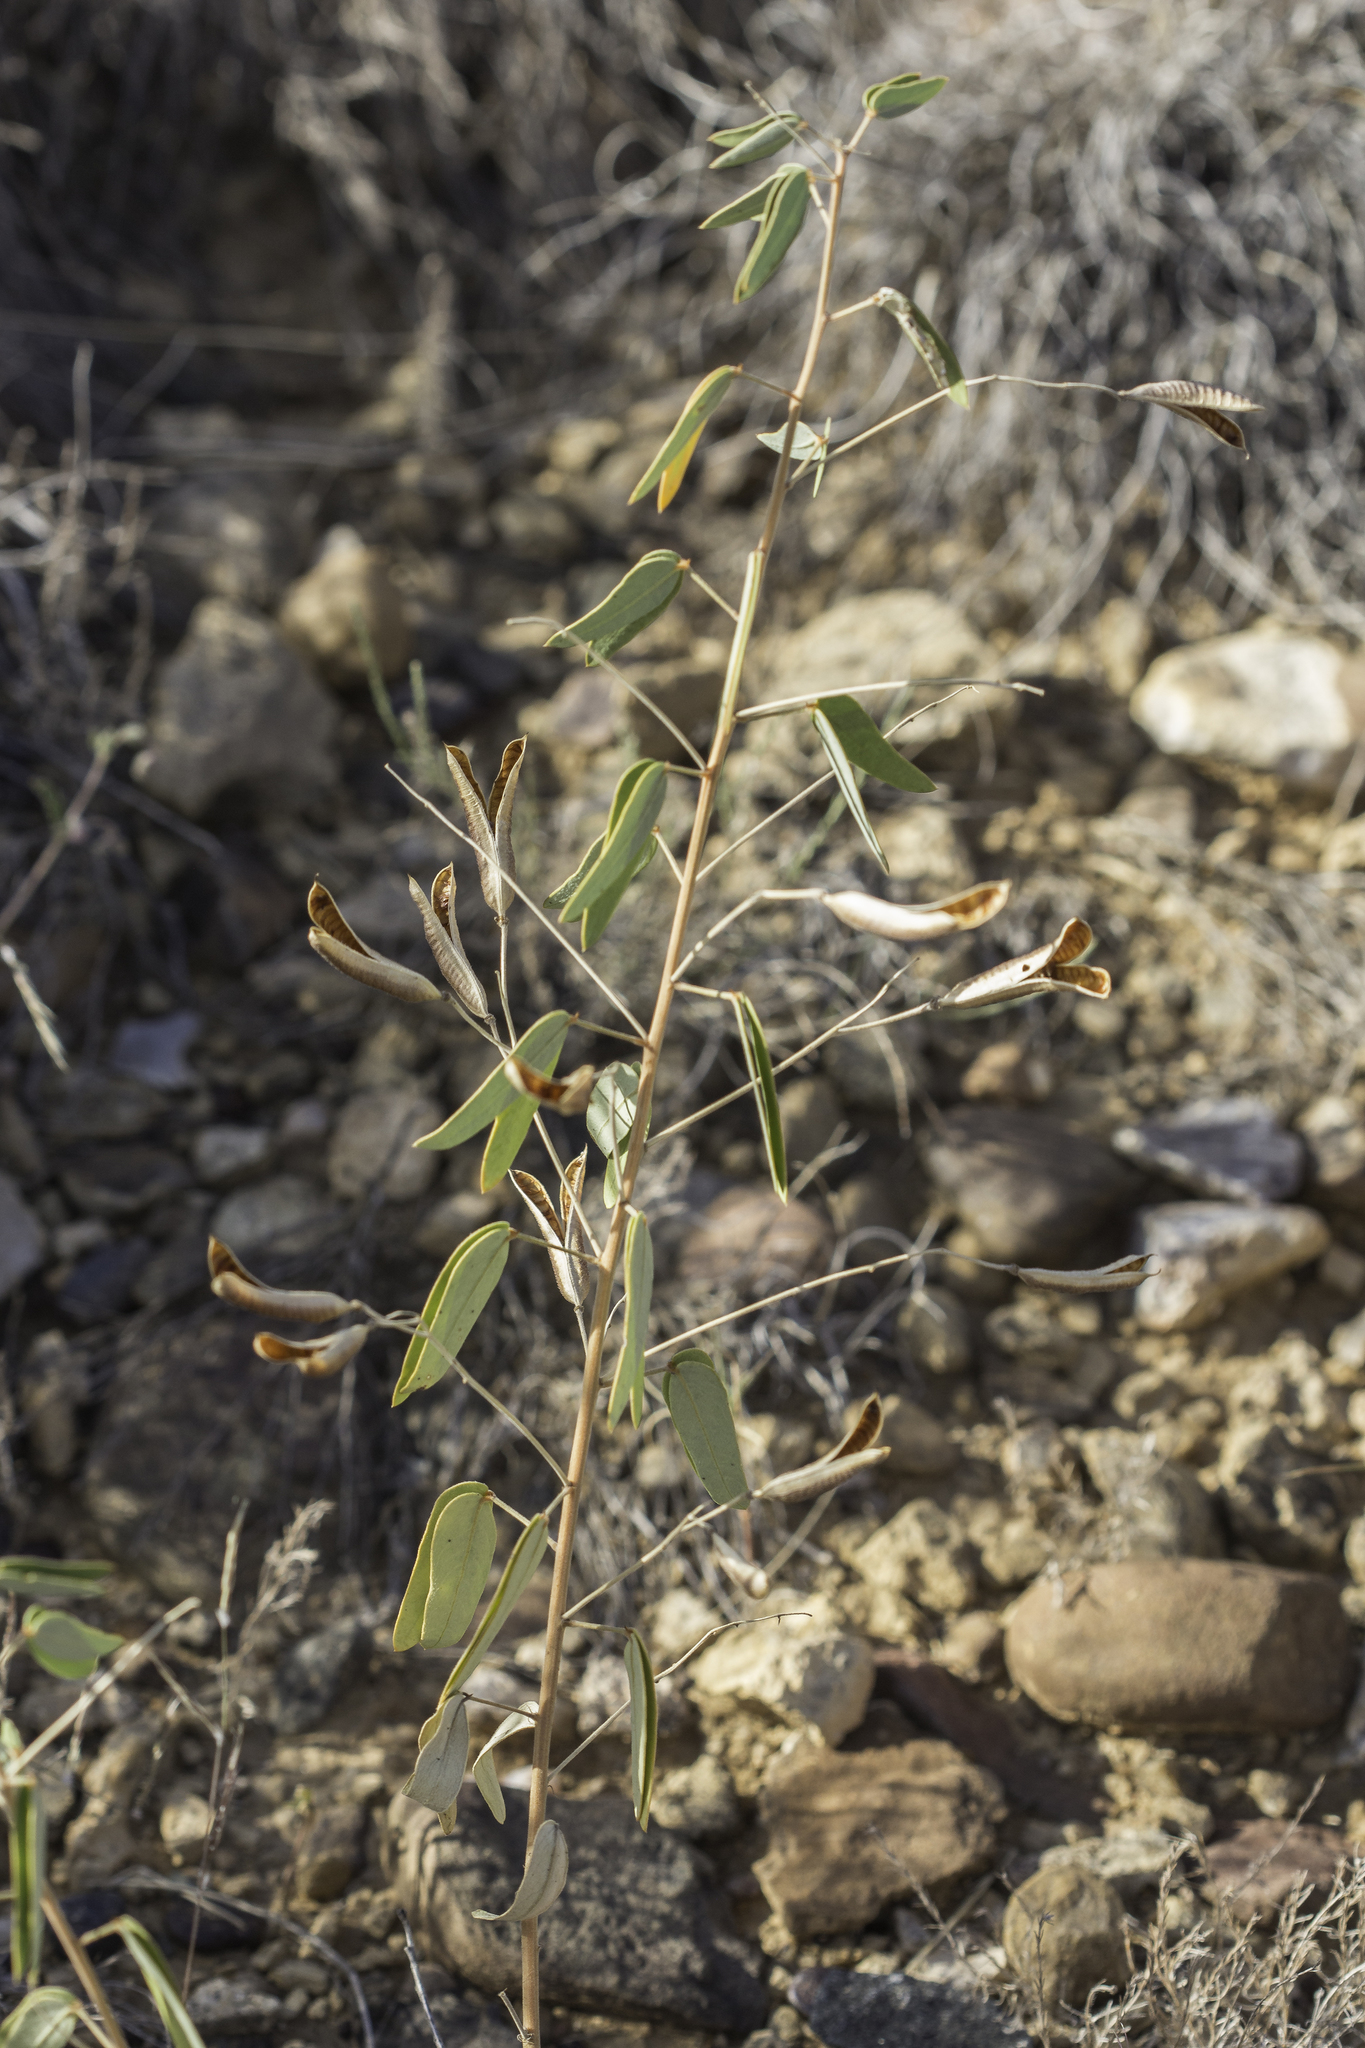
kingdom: Plantae
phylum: Tracheophyta
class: Magnoliopsida
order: Fabales
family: Fabaceae
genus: Senna
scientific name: Senna roemeriana
